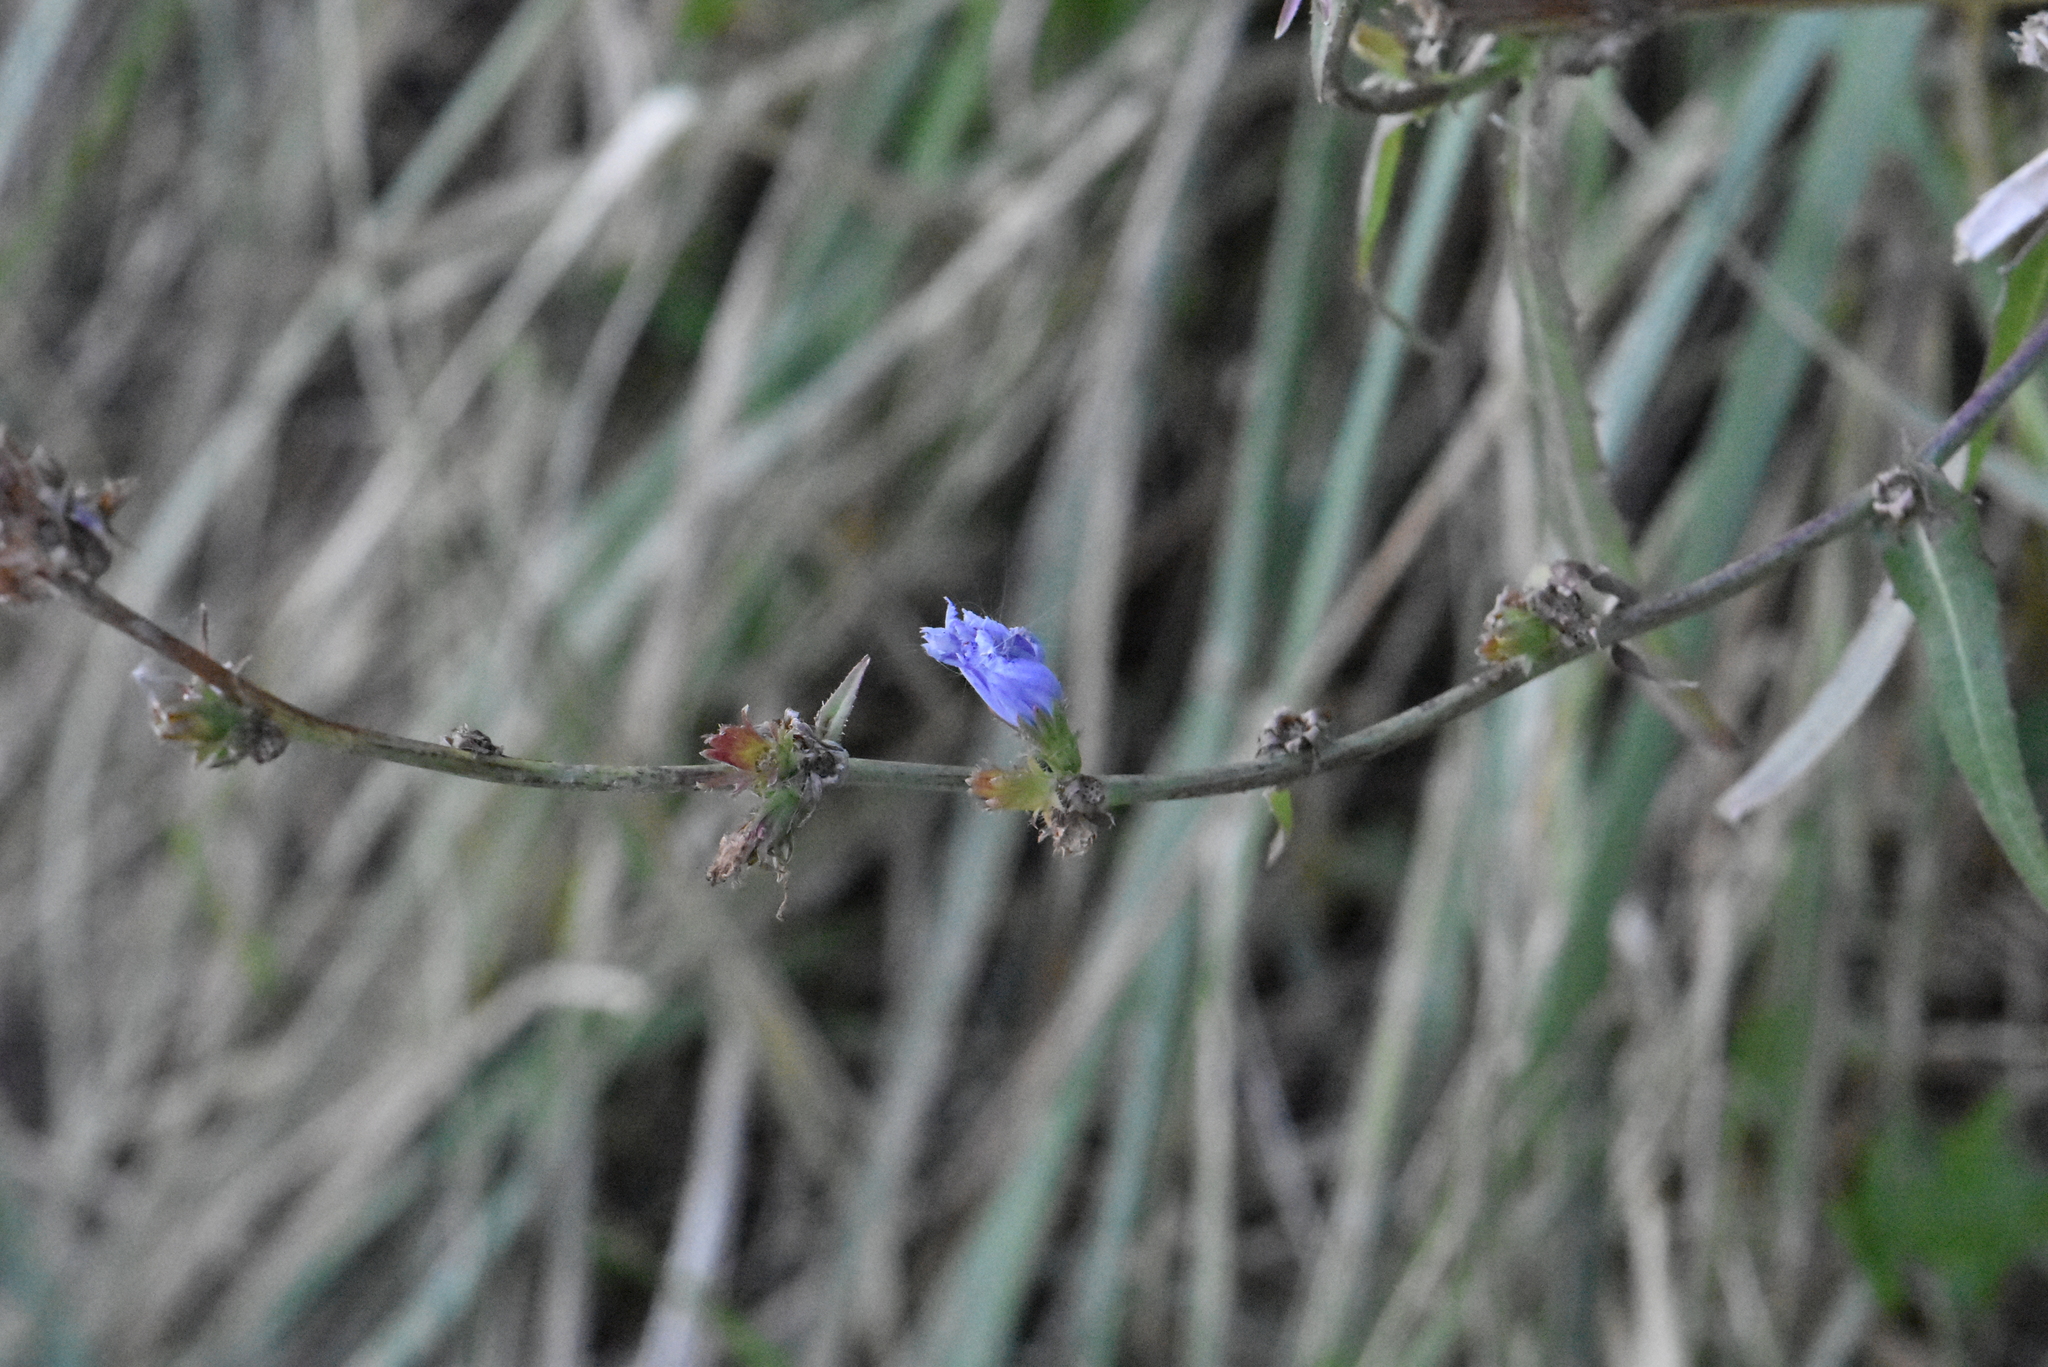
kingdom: Plantae
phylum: Tracheophyta
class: Magnoliopsida
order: Asterales
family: Asteraceae
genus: Cichorium
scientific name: Cichorium intybus
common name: Chicory
